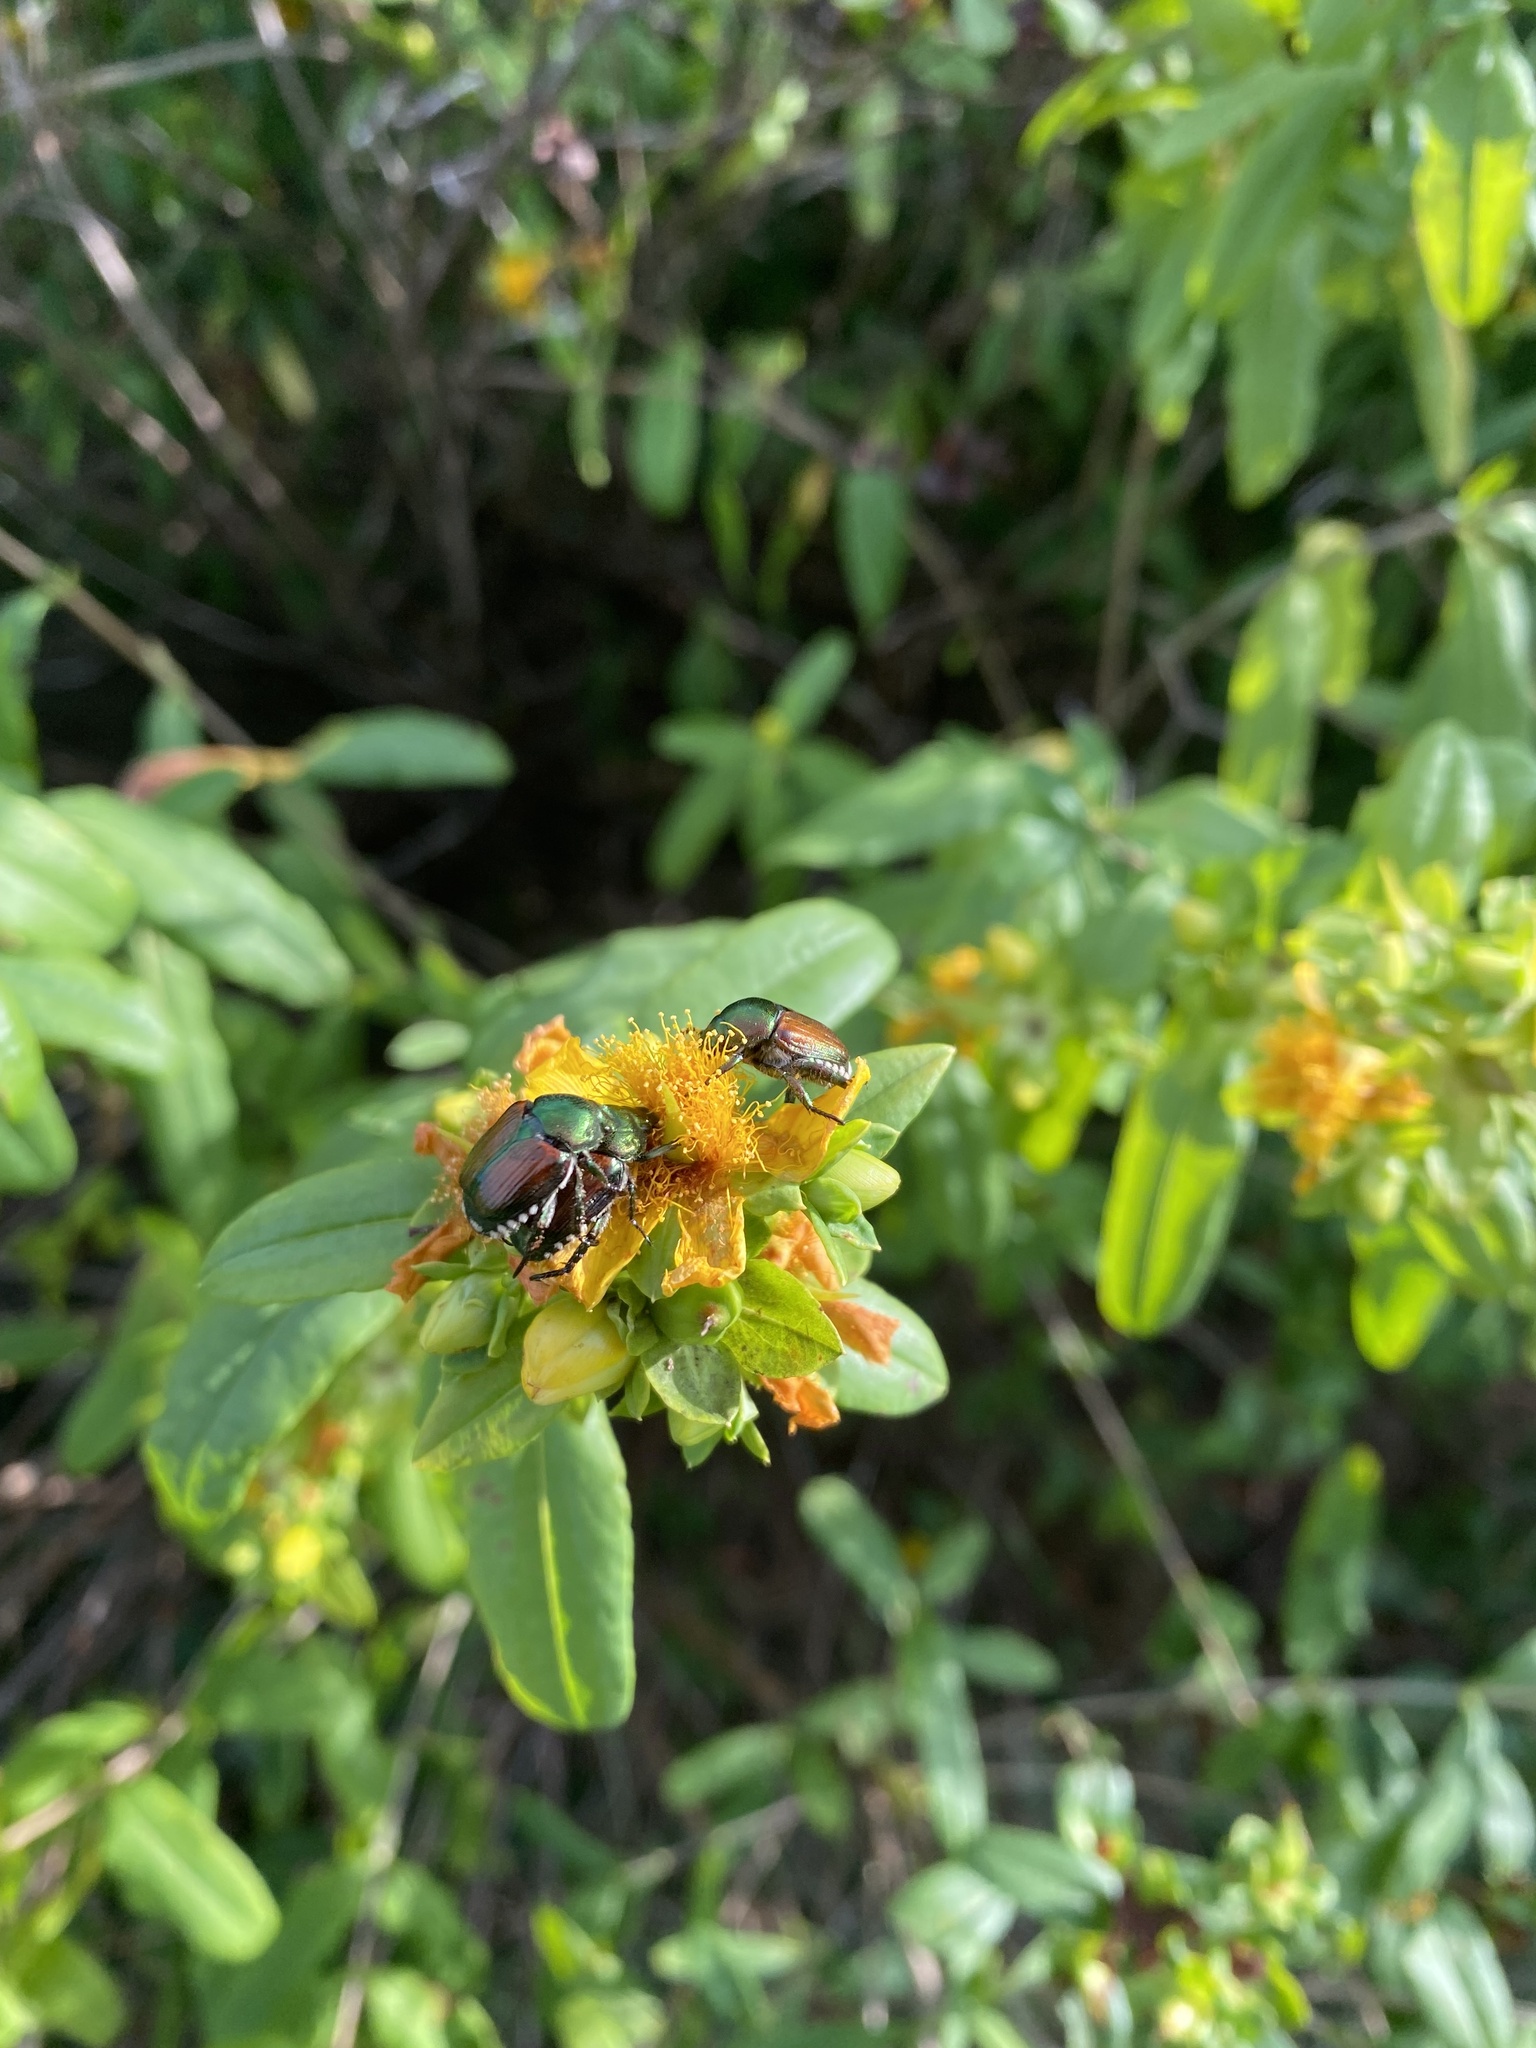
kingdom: Animalia
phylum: Arthropoda
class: Insecta
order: Coleoptera
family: Scarabaeidae
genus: Popillia
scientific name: Popillia japonica
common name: Japanese beetle
